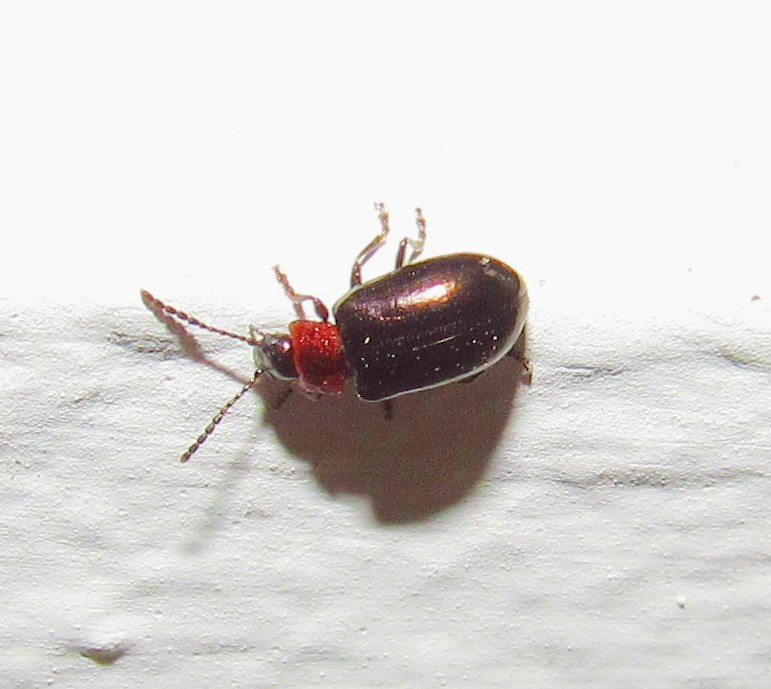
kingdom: Animalia
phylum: Arthropoda
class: Insecta
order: Coleoptera
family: Chrysomelidae
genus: Microtheca
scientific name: Microtheca
